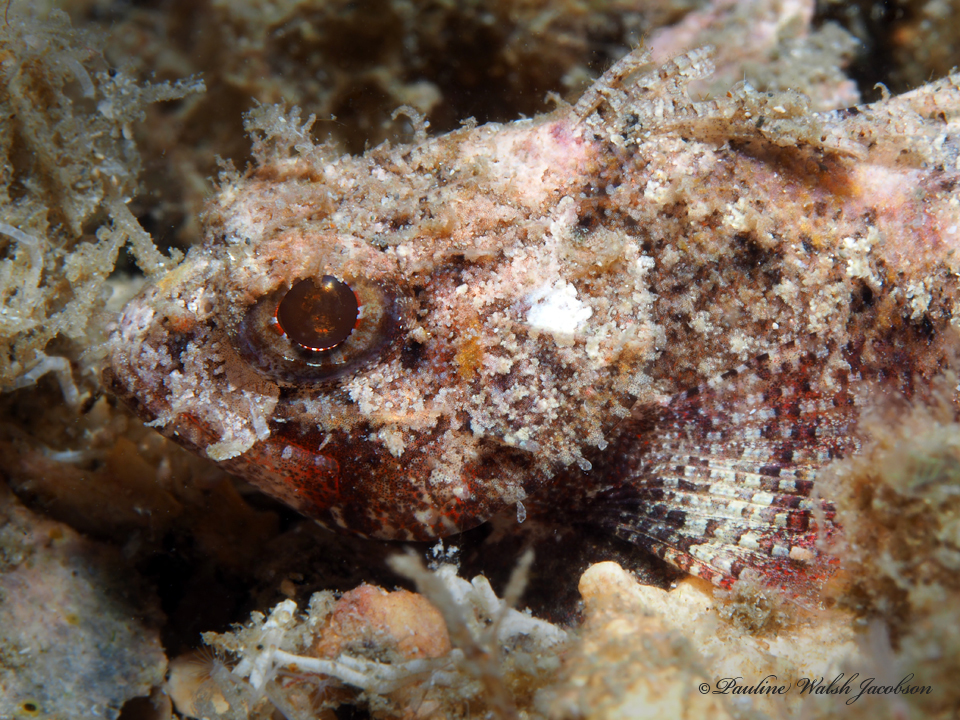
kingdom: Animalia
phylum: Chordata
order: Scorpaeniformes
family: Scorpaenidae
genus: Scorpaena
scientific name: Scorpaena inermis
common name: Mushroom scorpionfish
